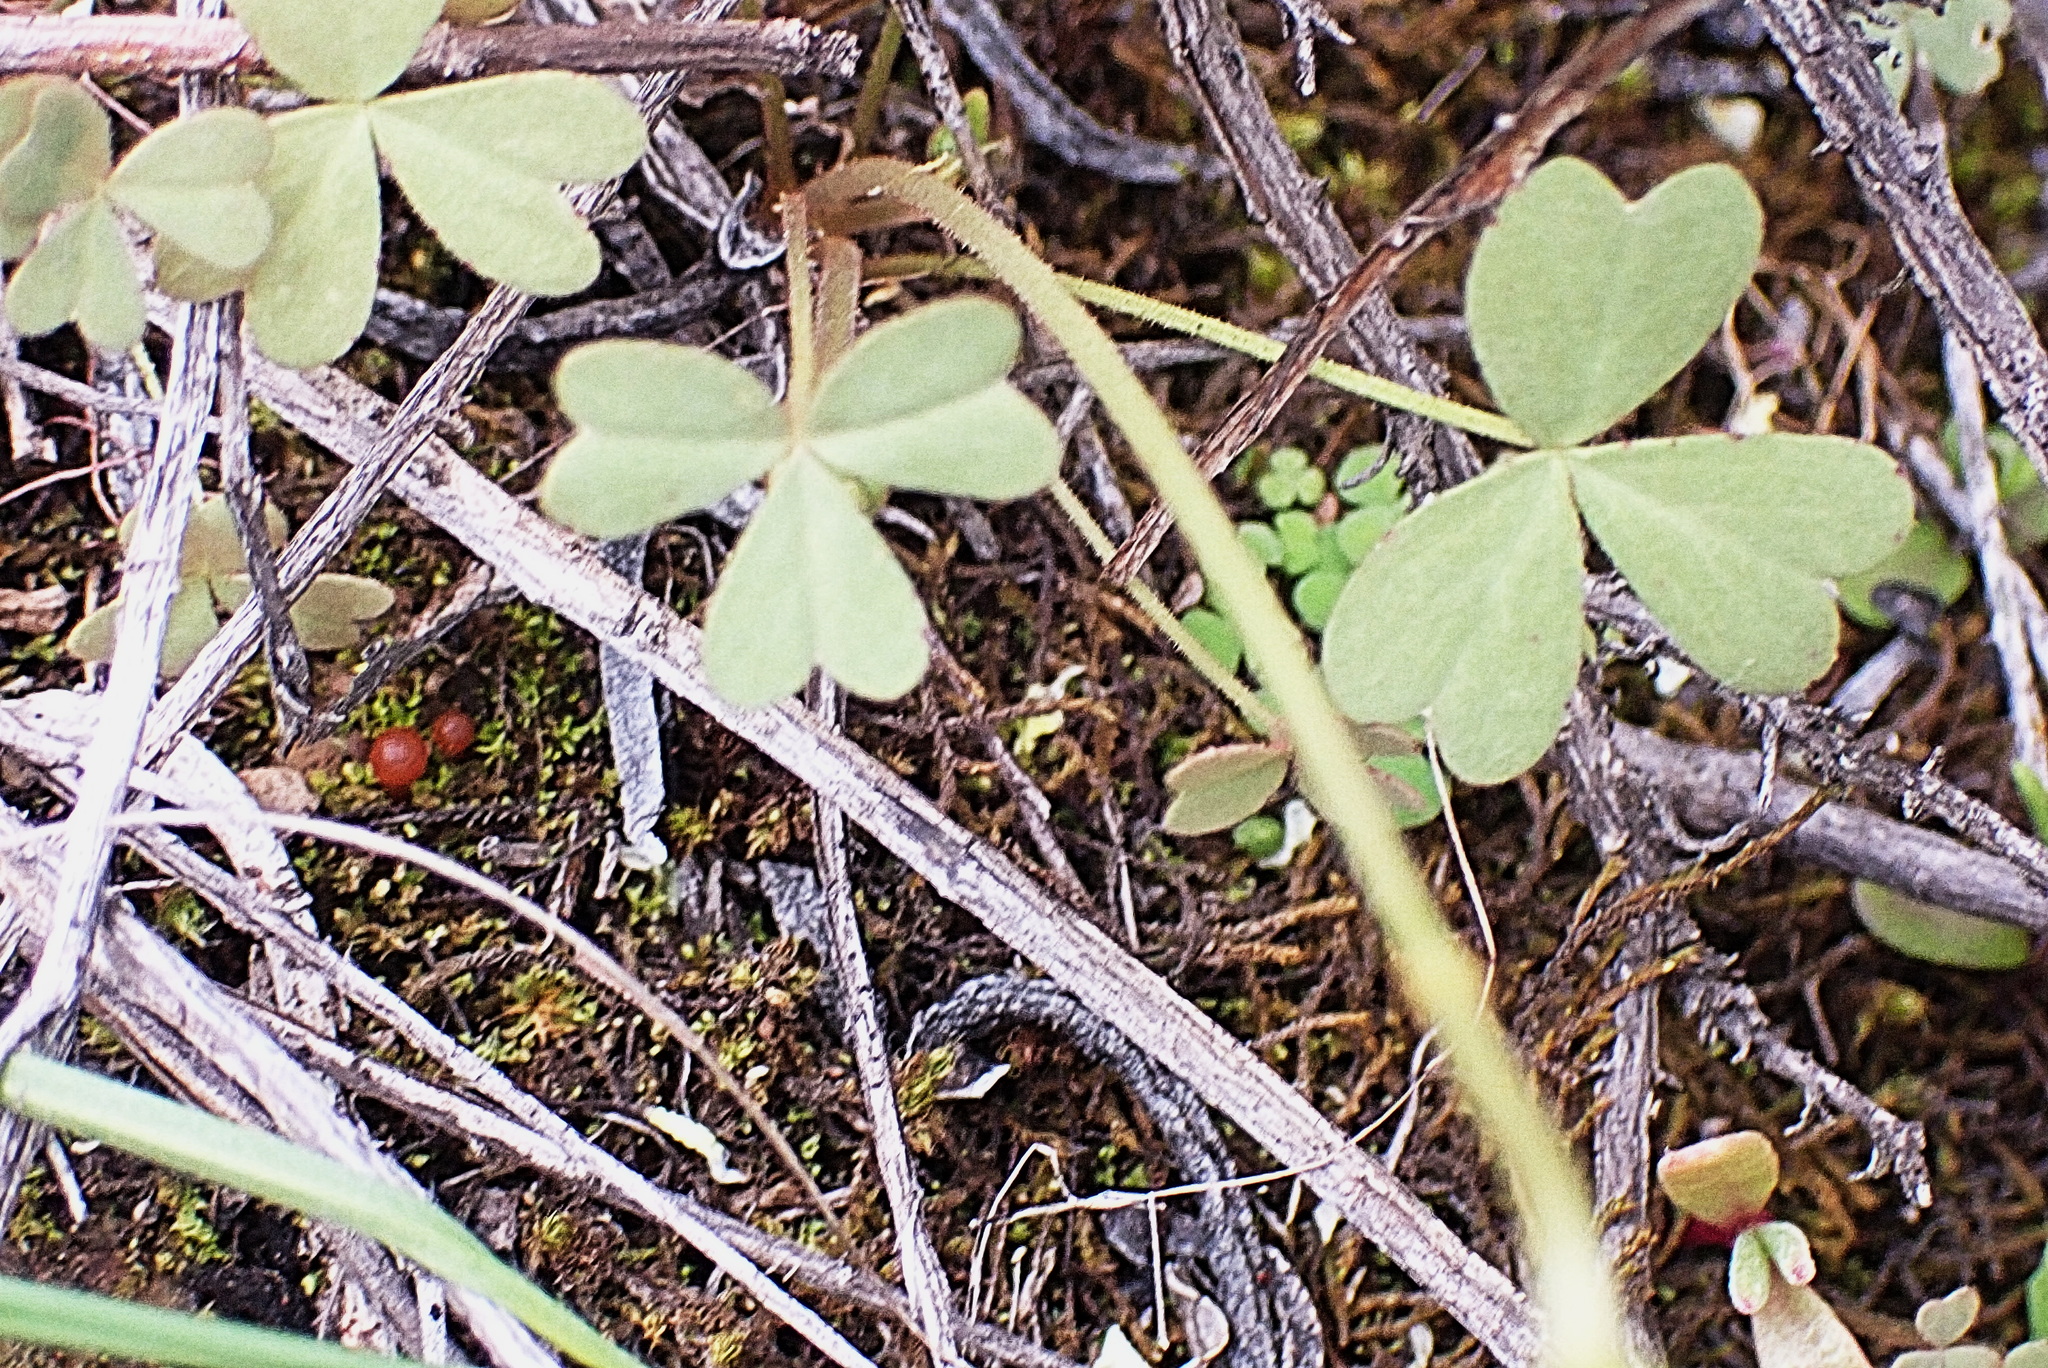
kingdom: Plantae
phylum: Tracheophyta
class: Magnoliopsida
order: Oxalidales
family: Oxalidaceae
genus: Oxalis
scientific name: Oxalis obtusa
